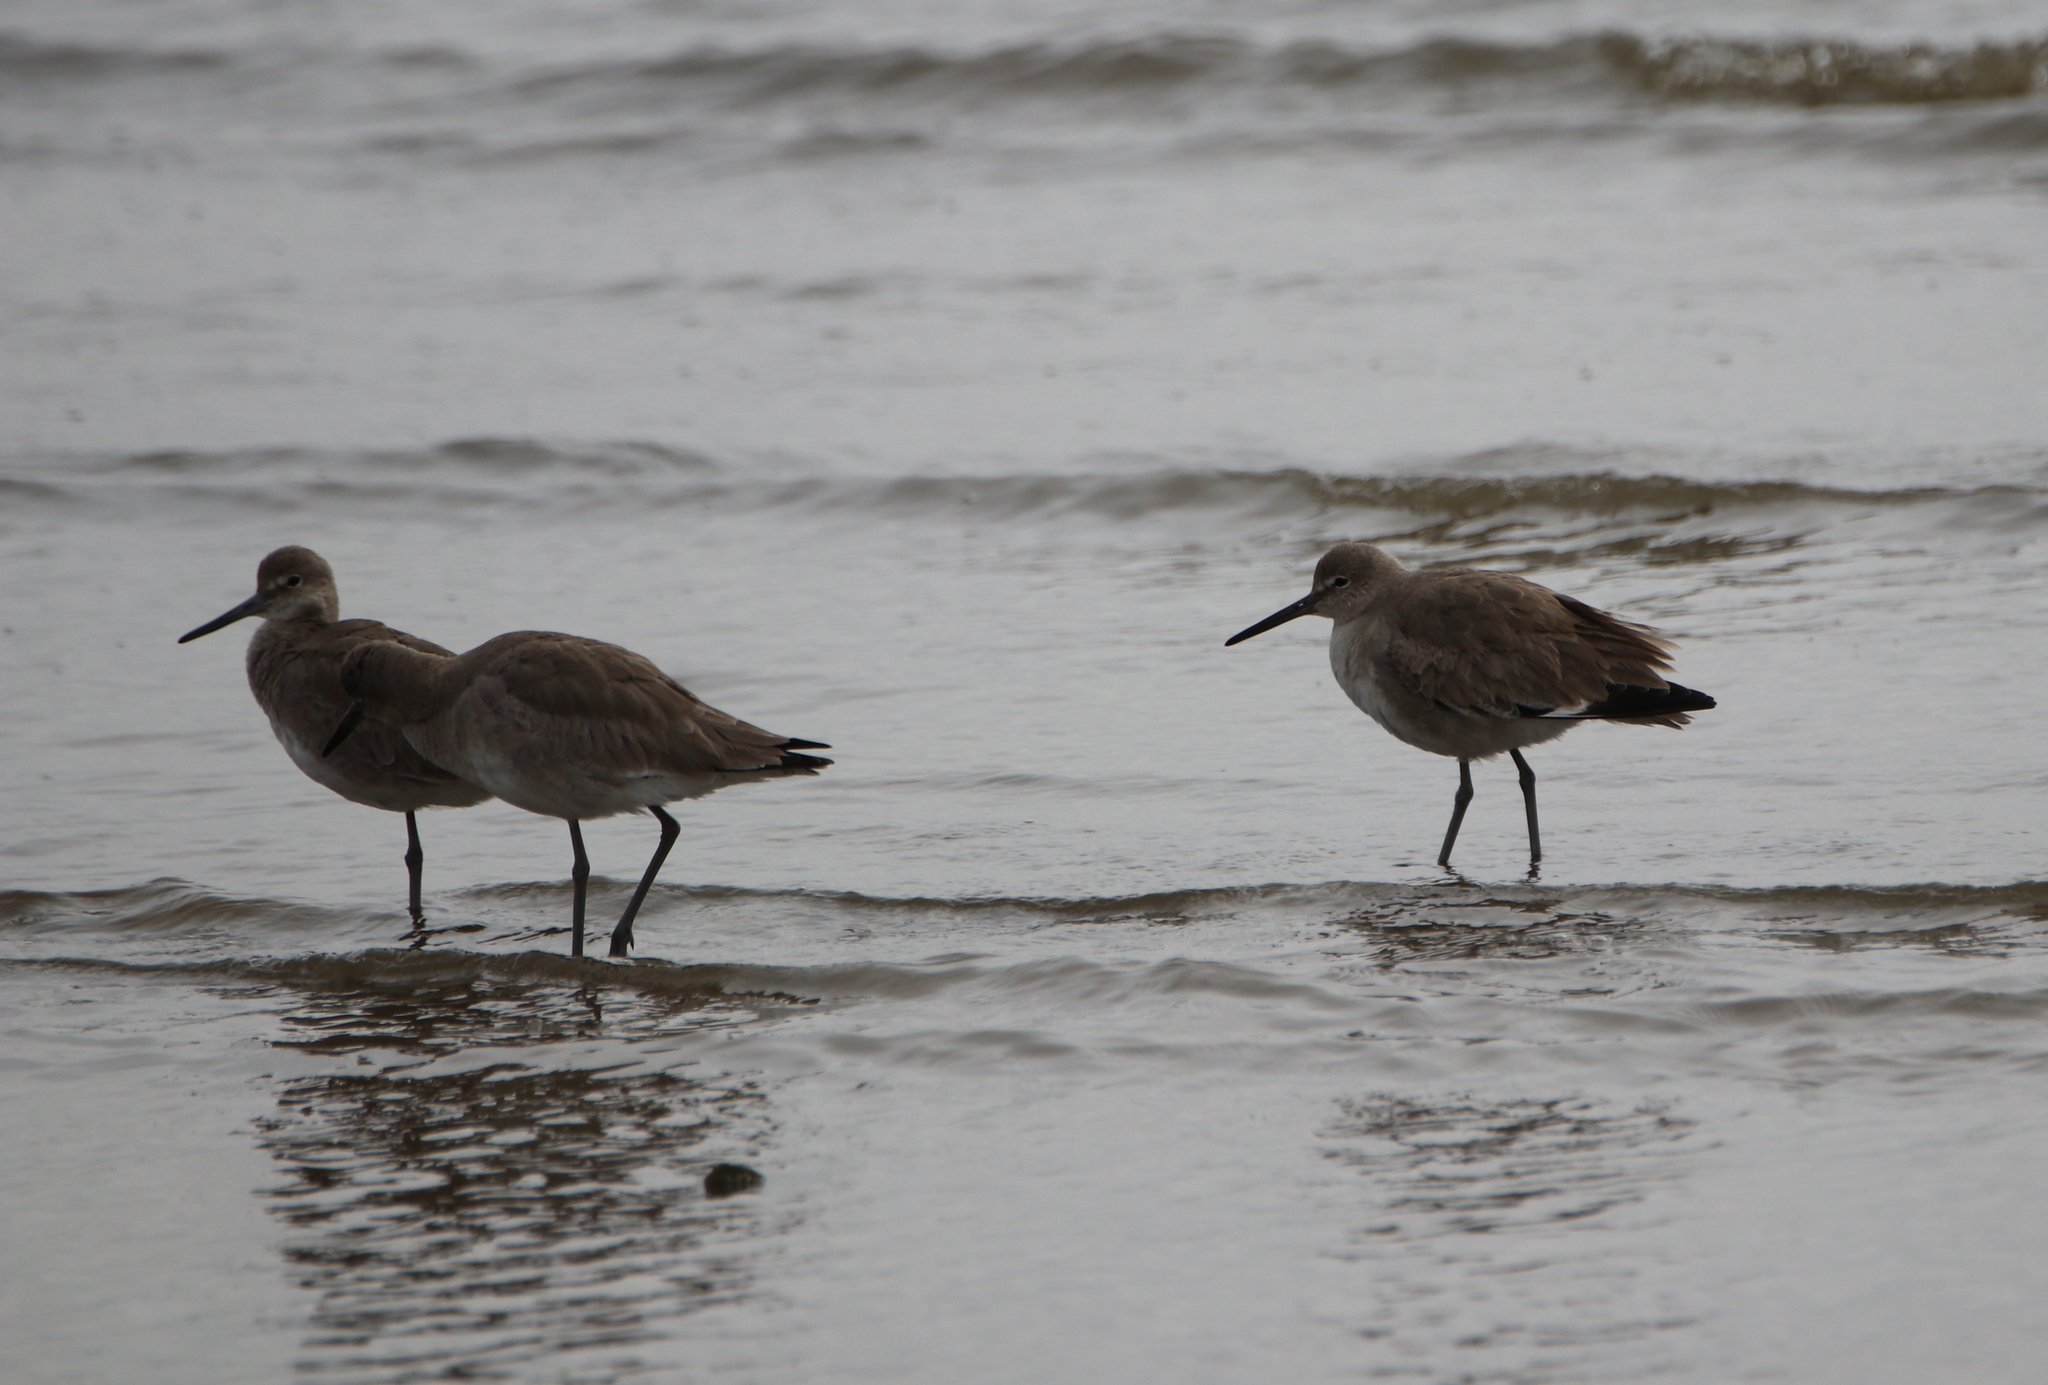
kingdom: Animalia
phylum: Chordata
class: Aves
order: Charadriiformes
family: Scolopacidae
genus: Tringa
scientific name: Tringa semipalmata
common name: Willet
